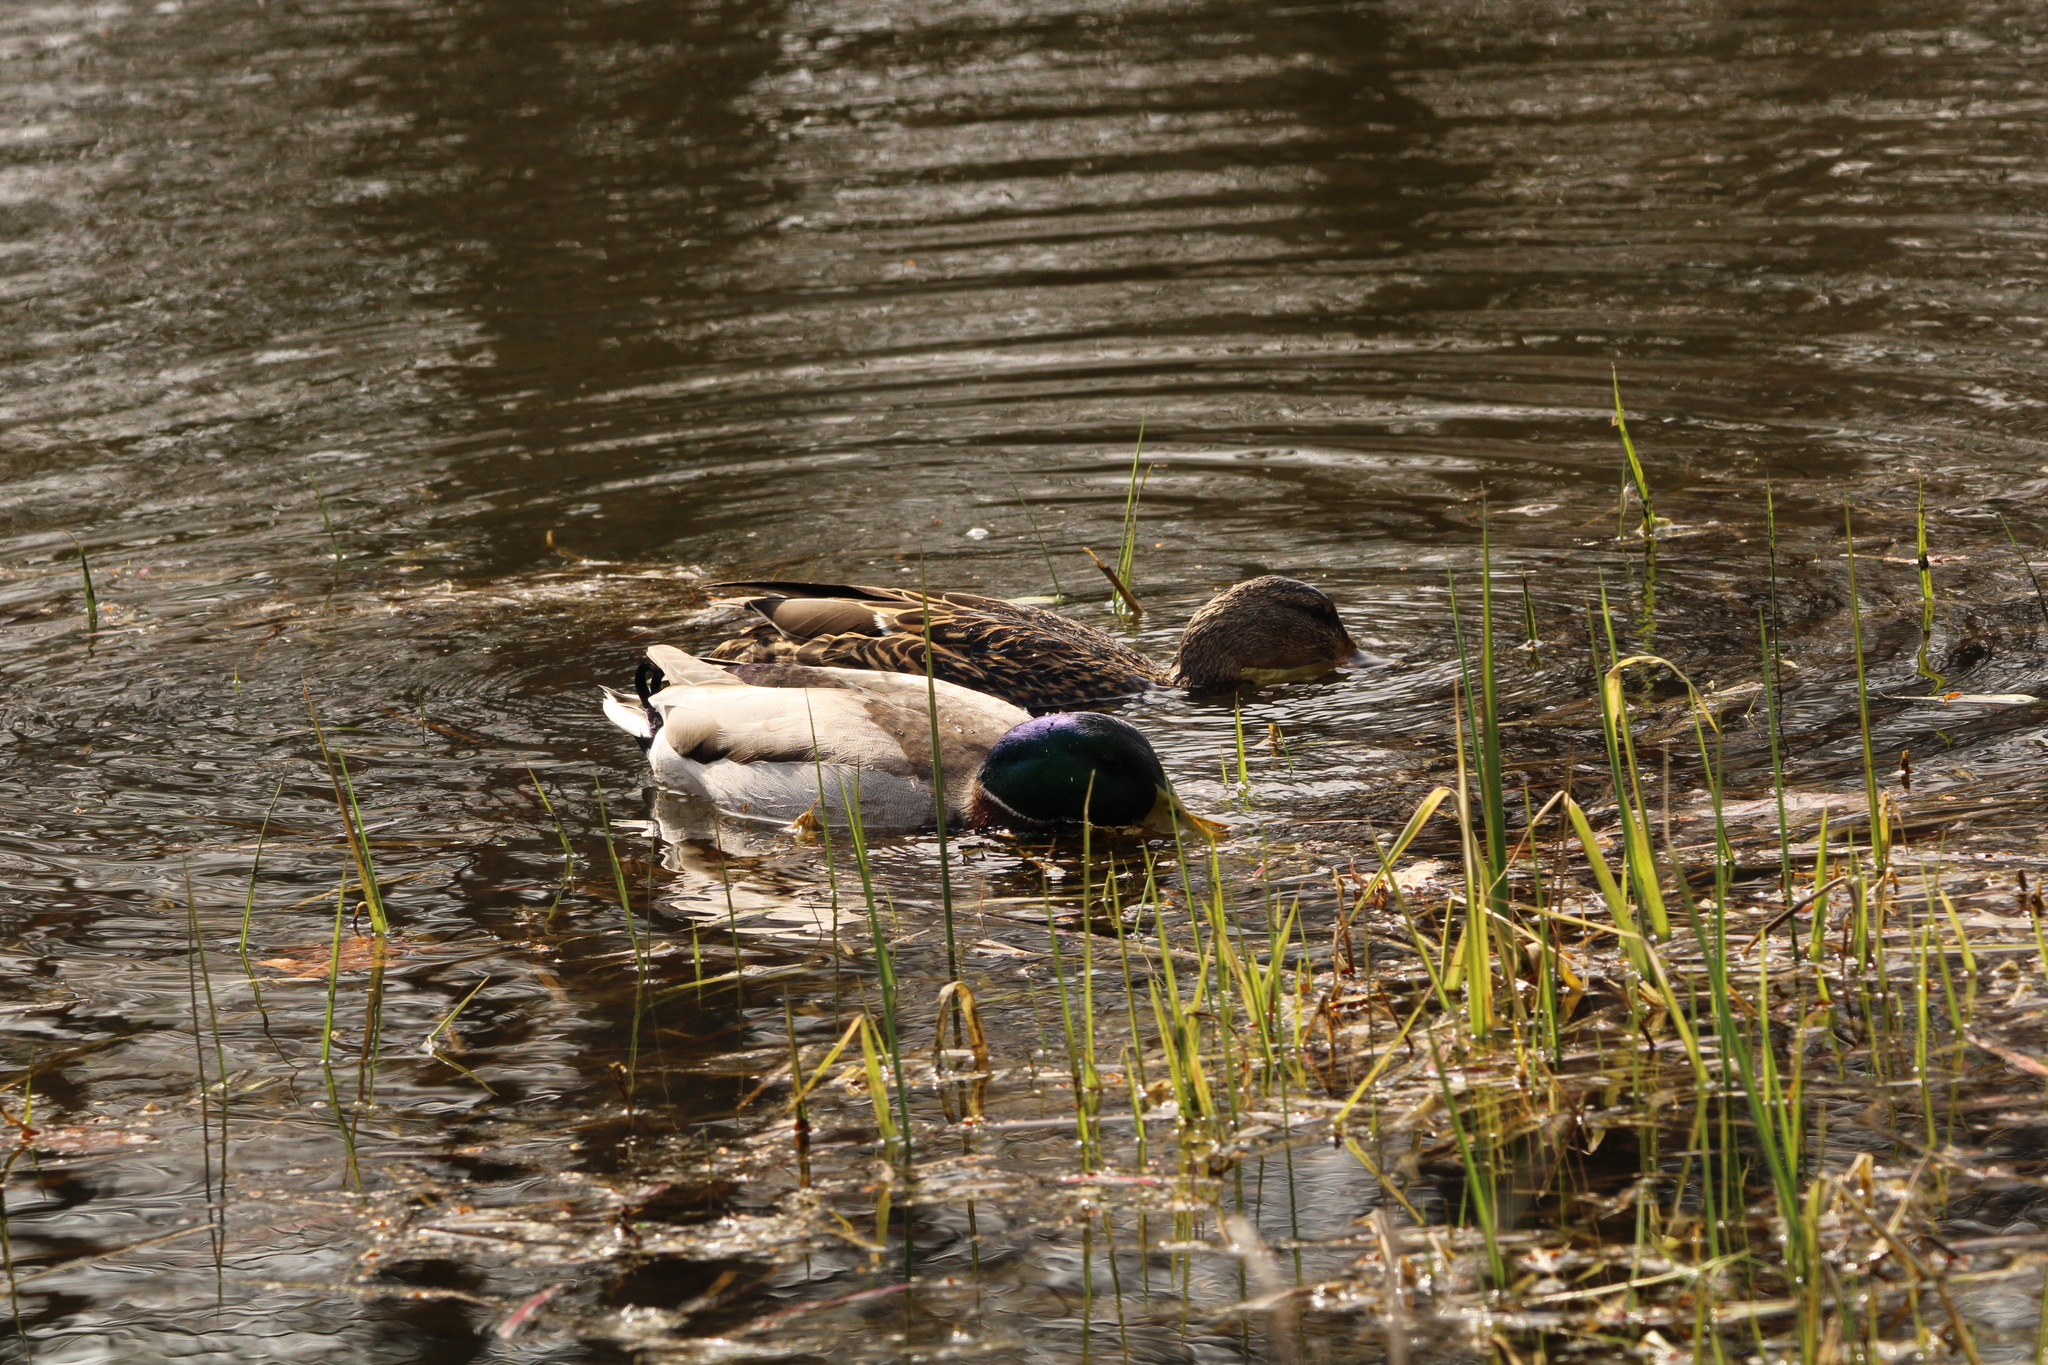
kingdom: Animalia
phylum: Chordata
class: Aves
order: Anseriformes
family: Anatidae
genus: Anas
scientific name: Anas platyrhynchos
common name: Mallard
